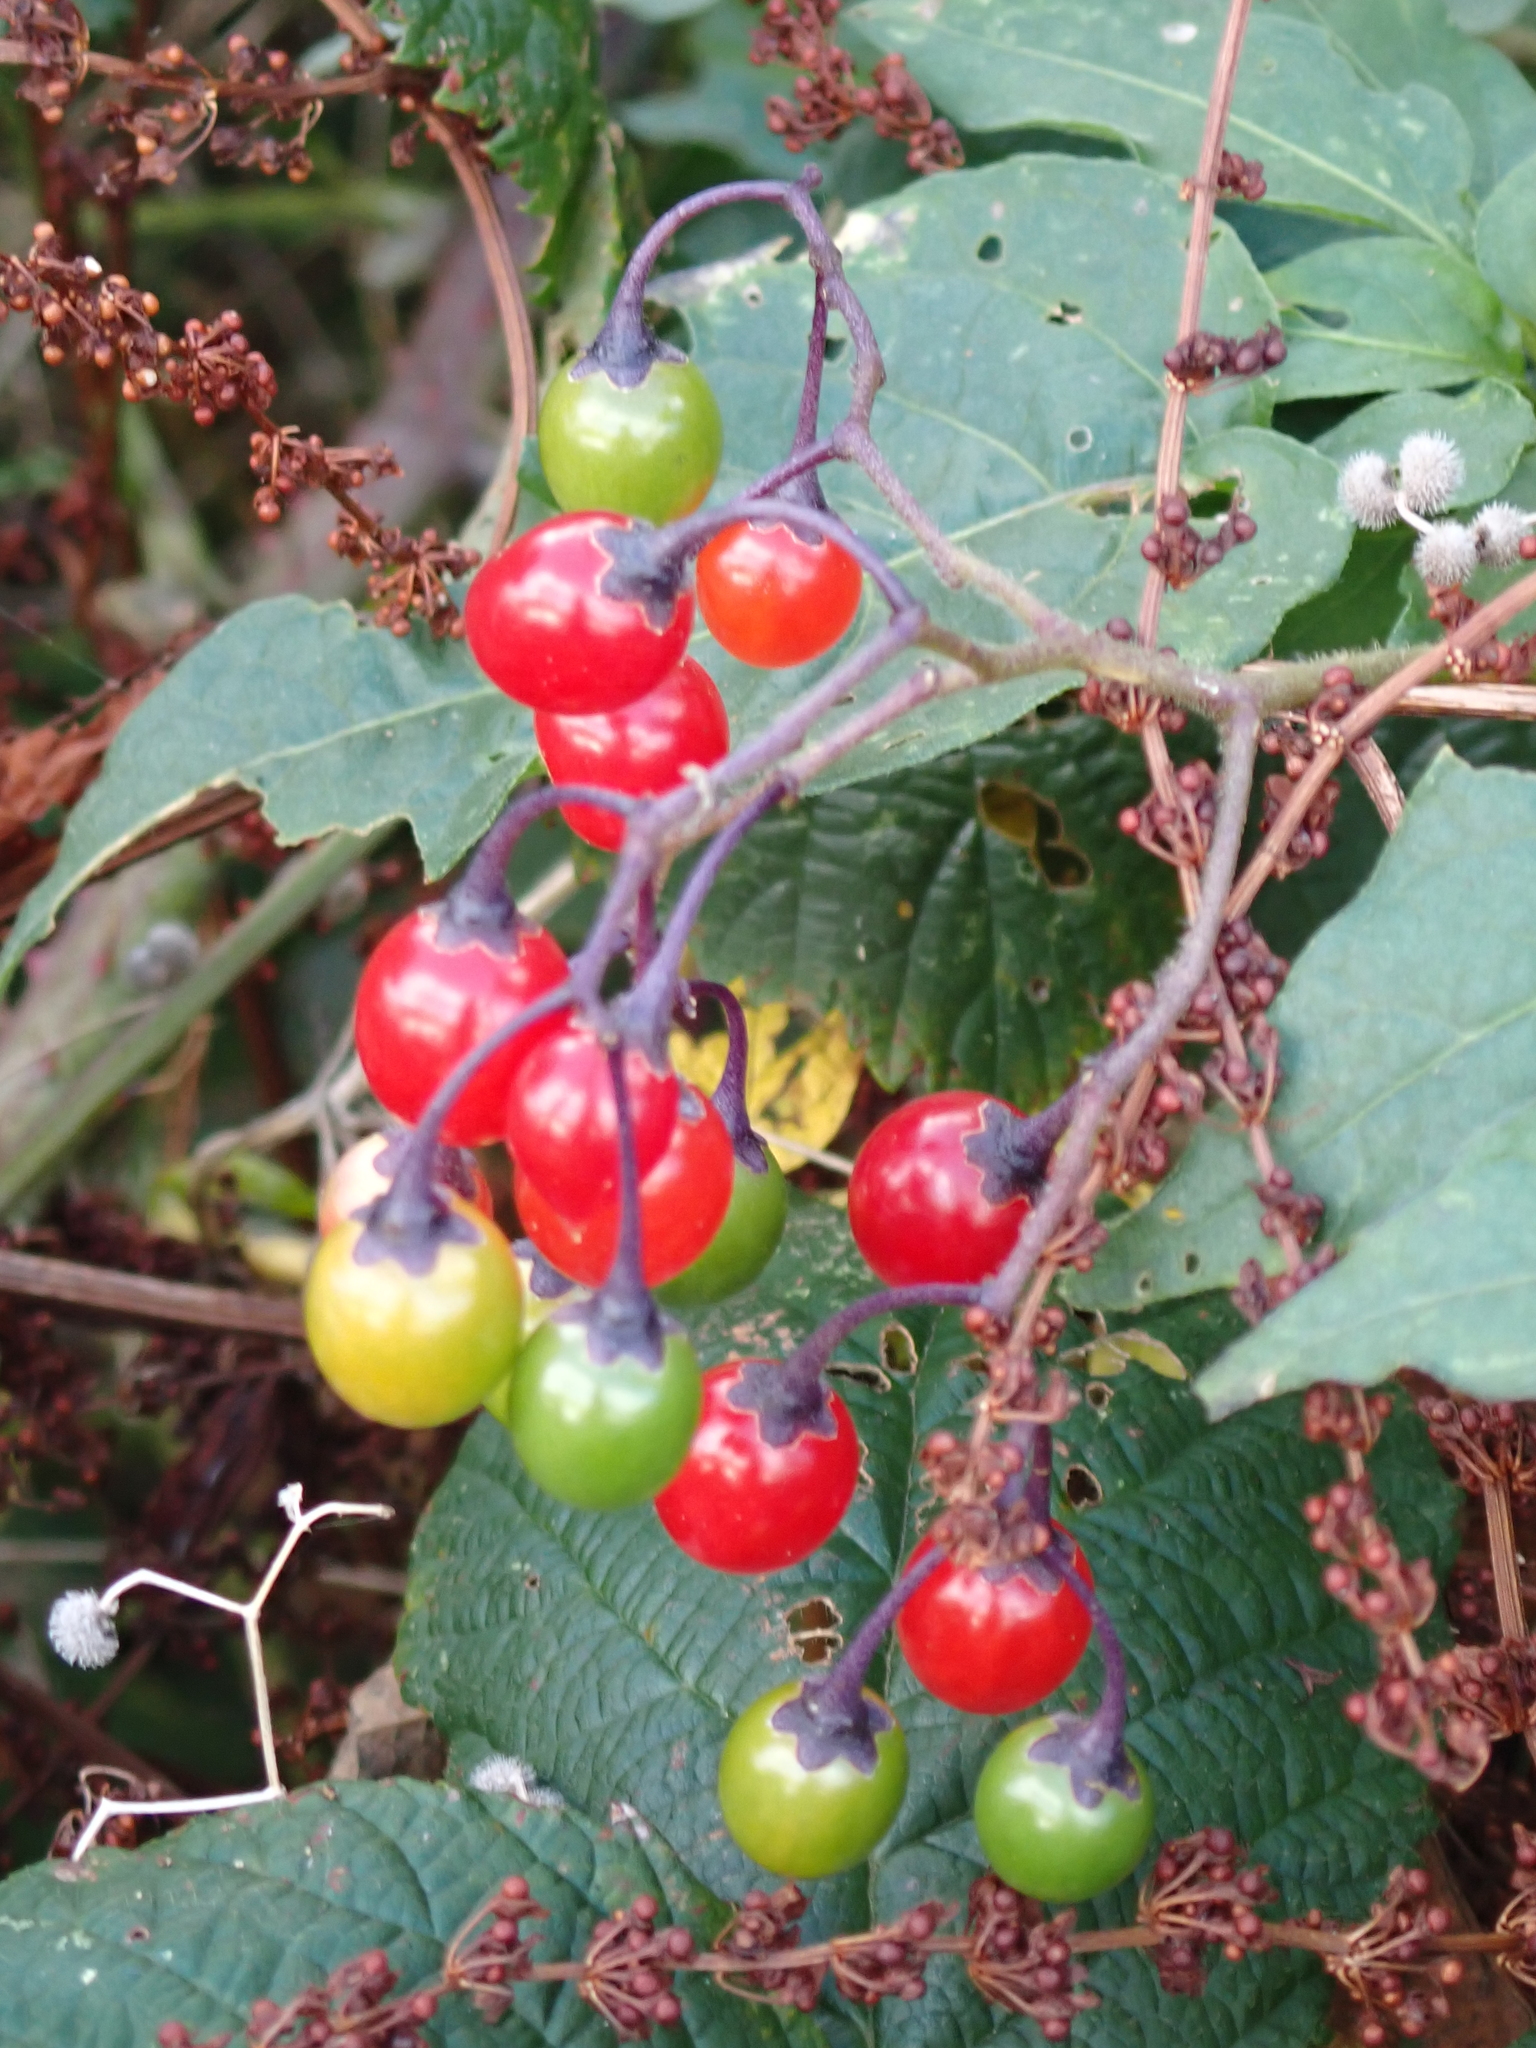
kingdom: Plantae
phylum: Tracheophyta
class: Magnoliopsida
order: Solanales
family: Solanaceae
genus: Solanum
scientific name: Solanum dulcamara
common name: Climbing nightshade
